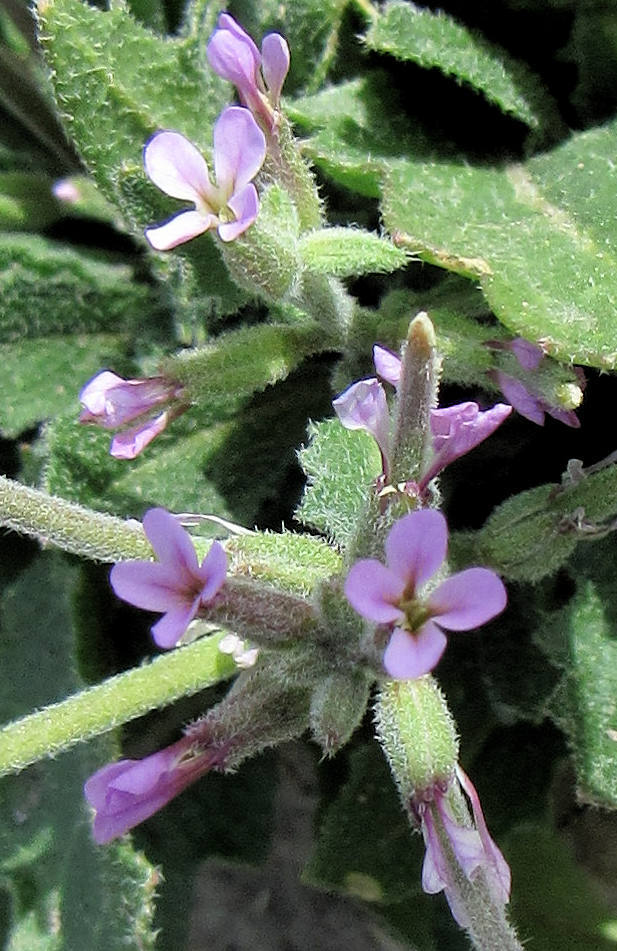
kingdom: Plantae
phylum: Tracheophyta
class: Magnoliopsida
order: Brassicales
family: Brassicaceae
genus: Strigosella
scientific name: Strigosella africana
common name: African mustard
